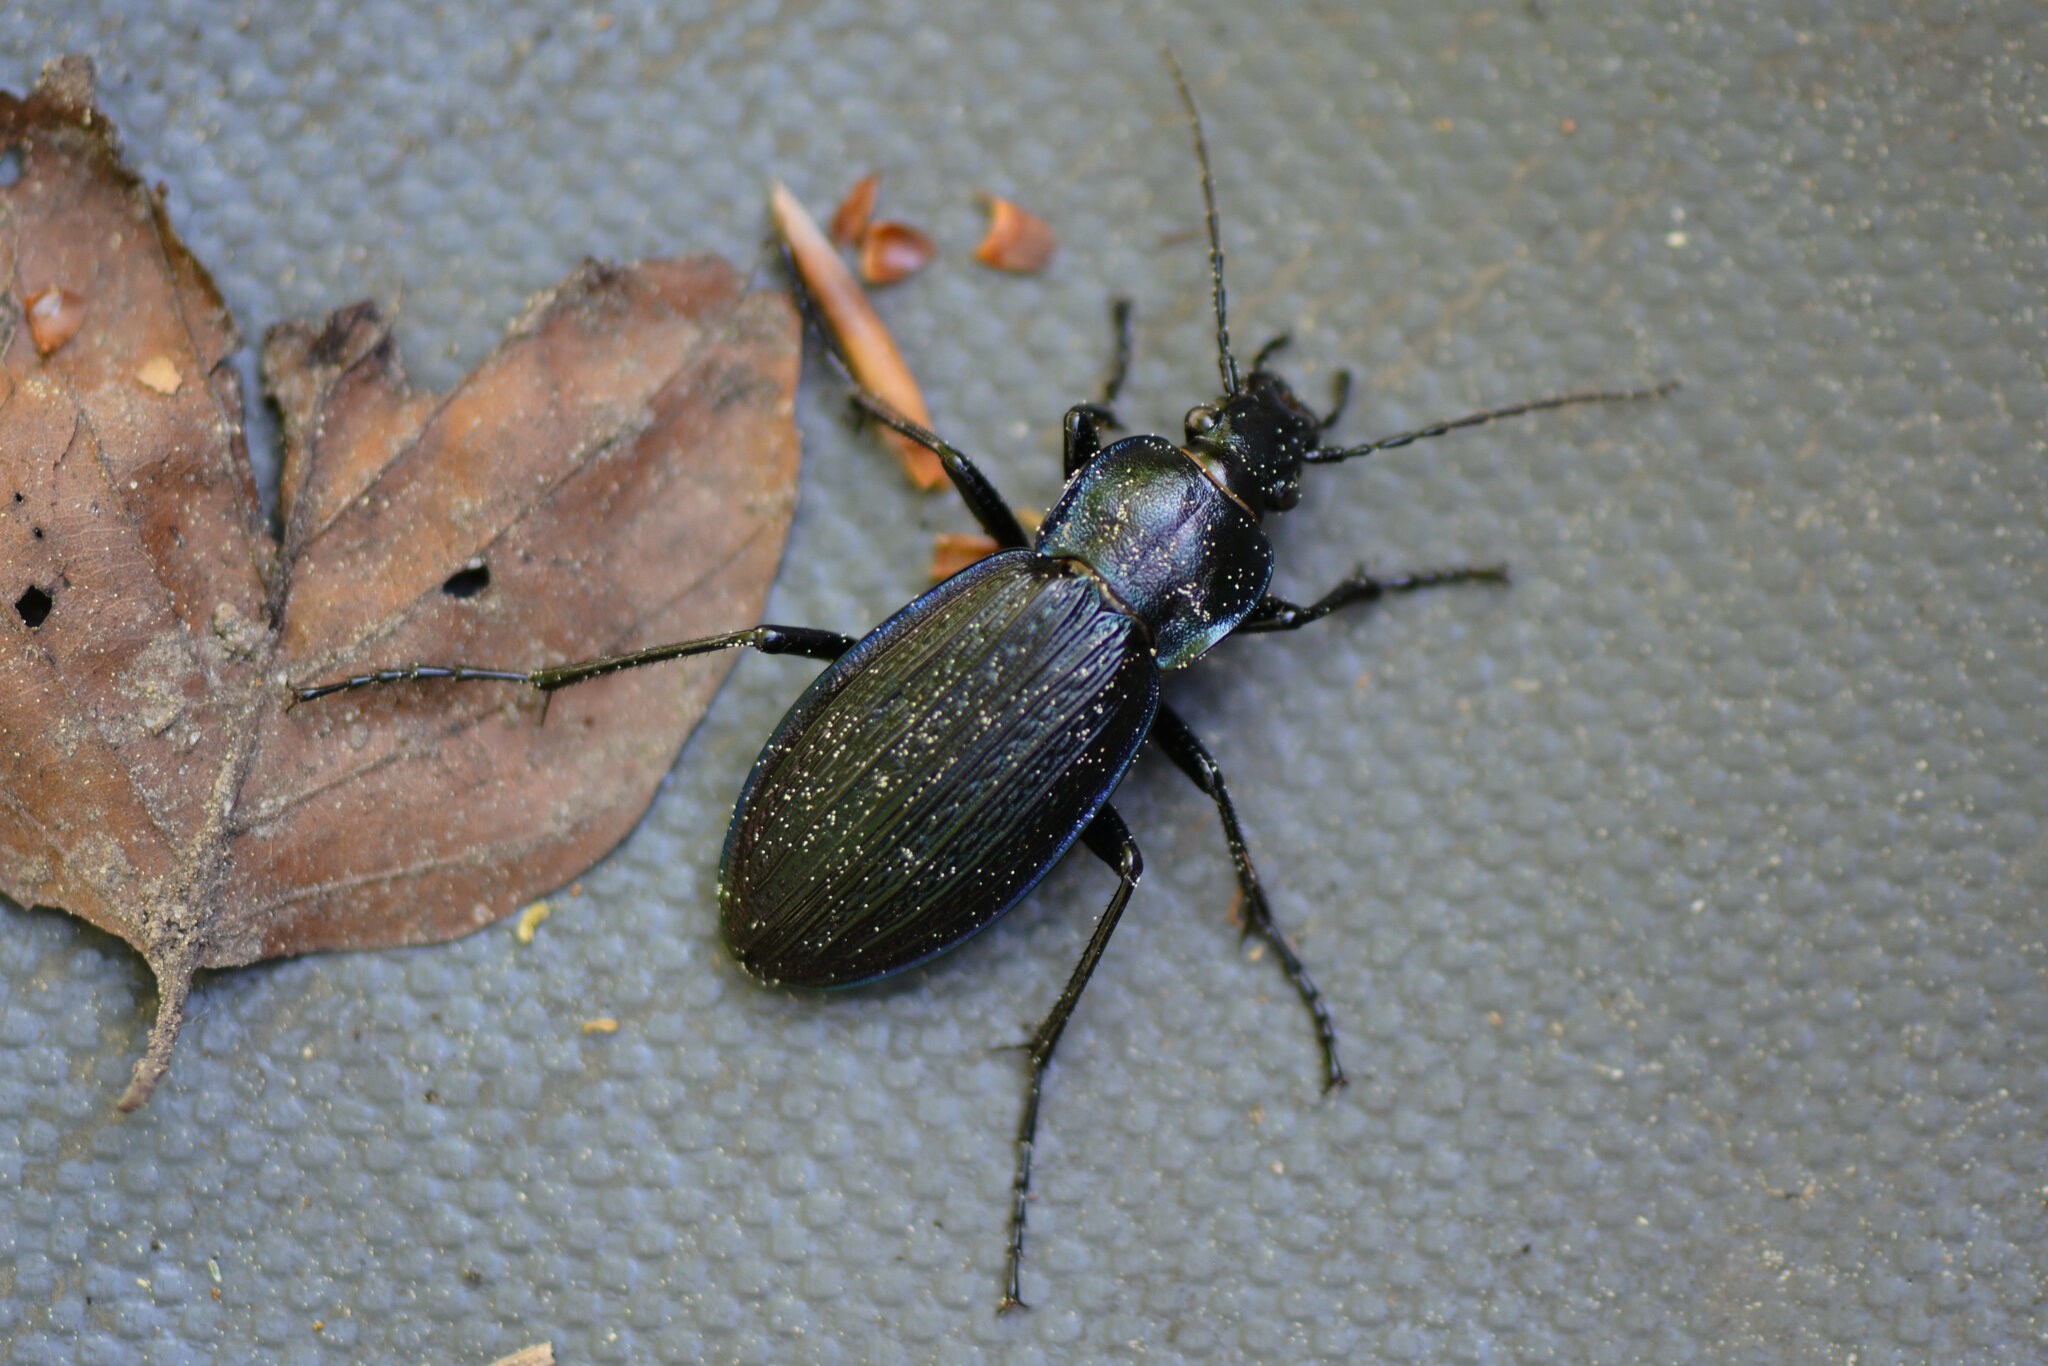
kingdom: Animalia
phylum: Arthropoda
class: Insecta
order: Coleoptera
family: Carabidae
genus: Carabus
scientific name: Carabus monilis
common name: Necklace ground beetle
